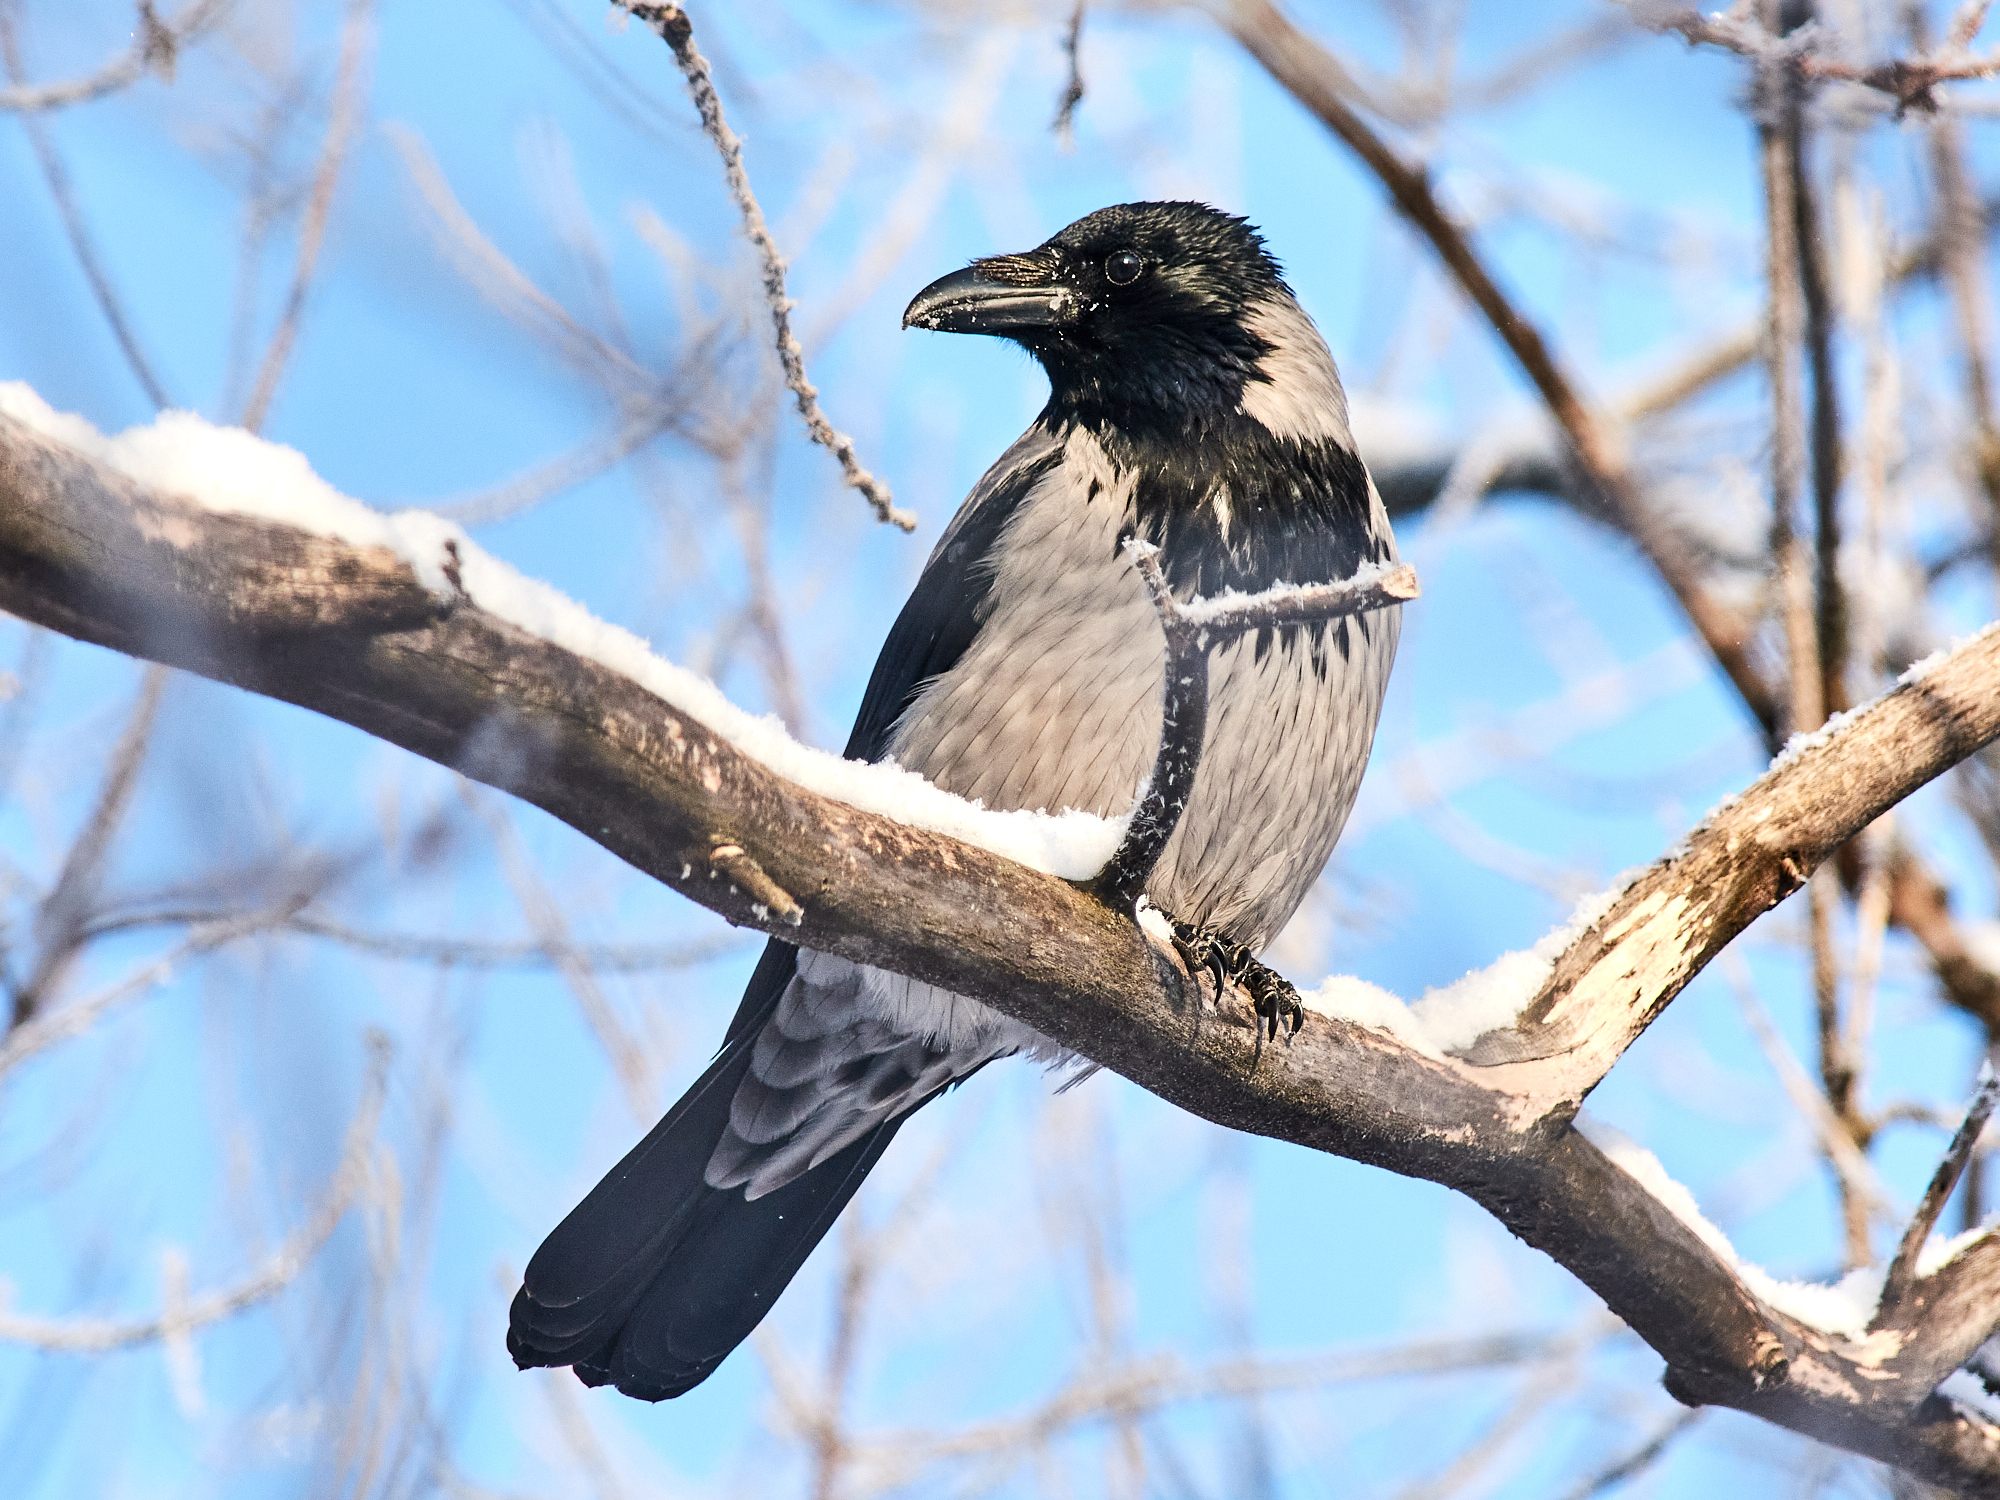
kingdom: Animalia
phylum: Chordata
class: Aves
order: Passeriformes
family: Corvidae
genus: Corvus
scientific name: Corvus cornix
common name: Hooded crow
